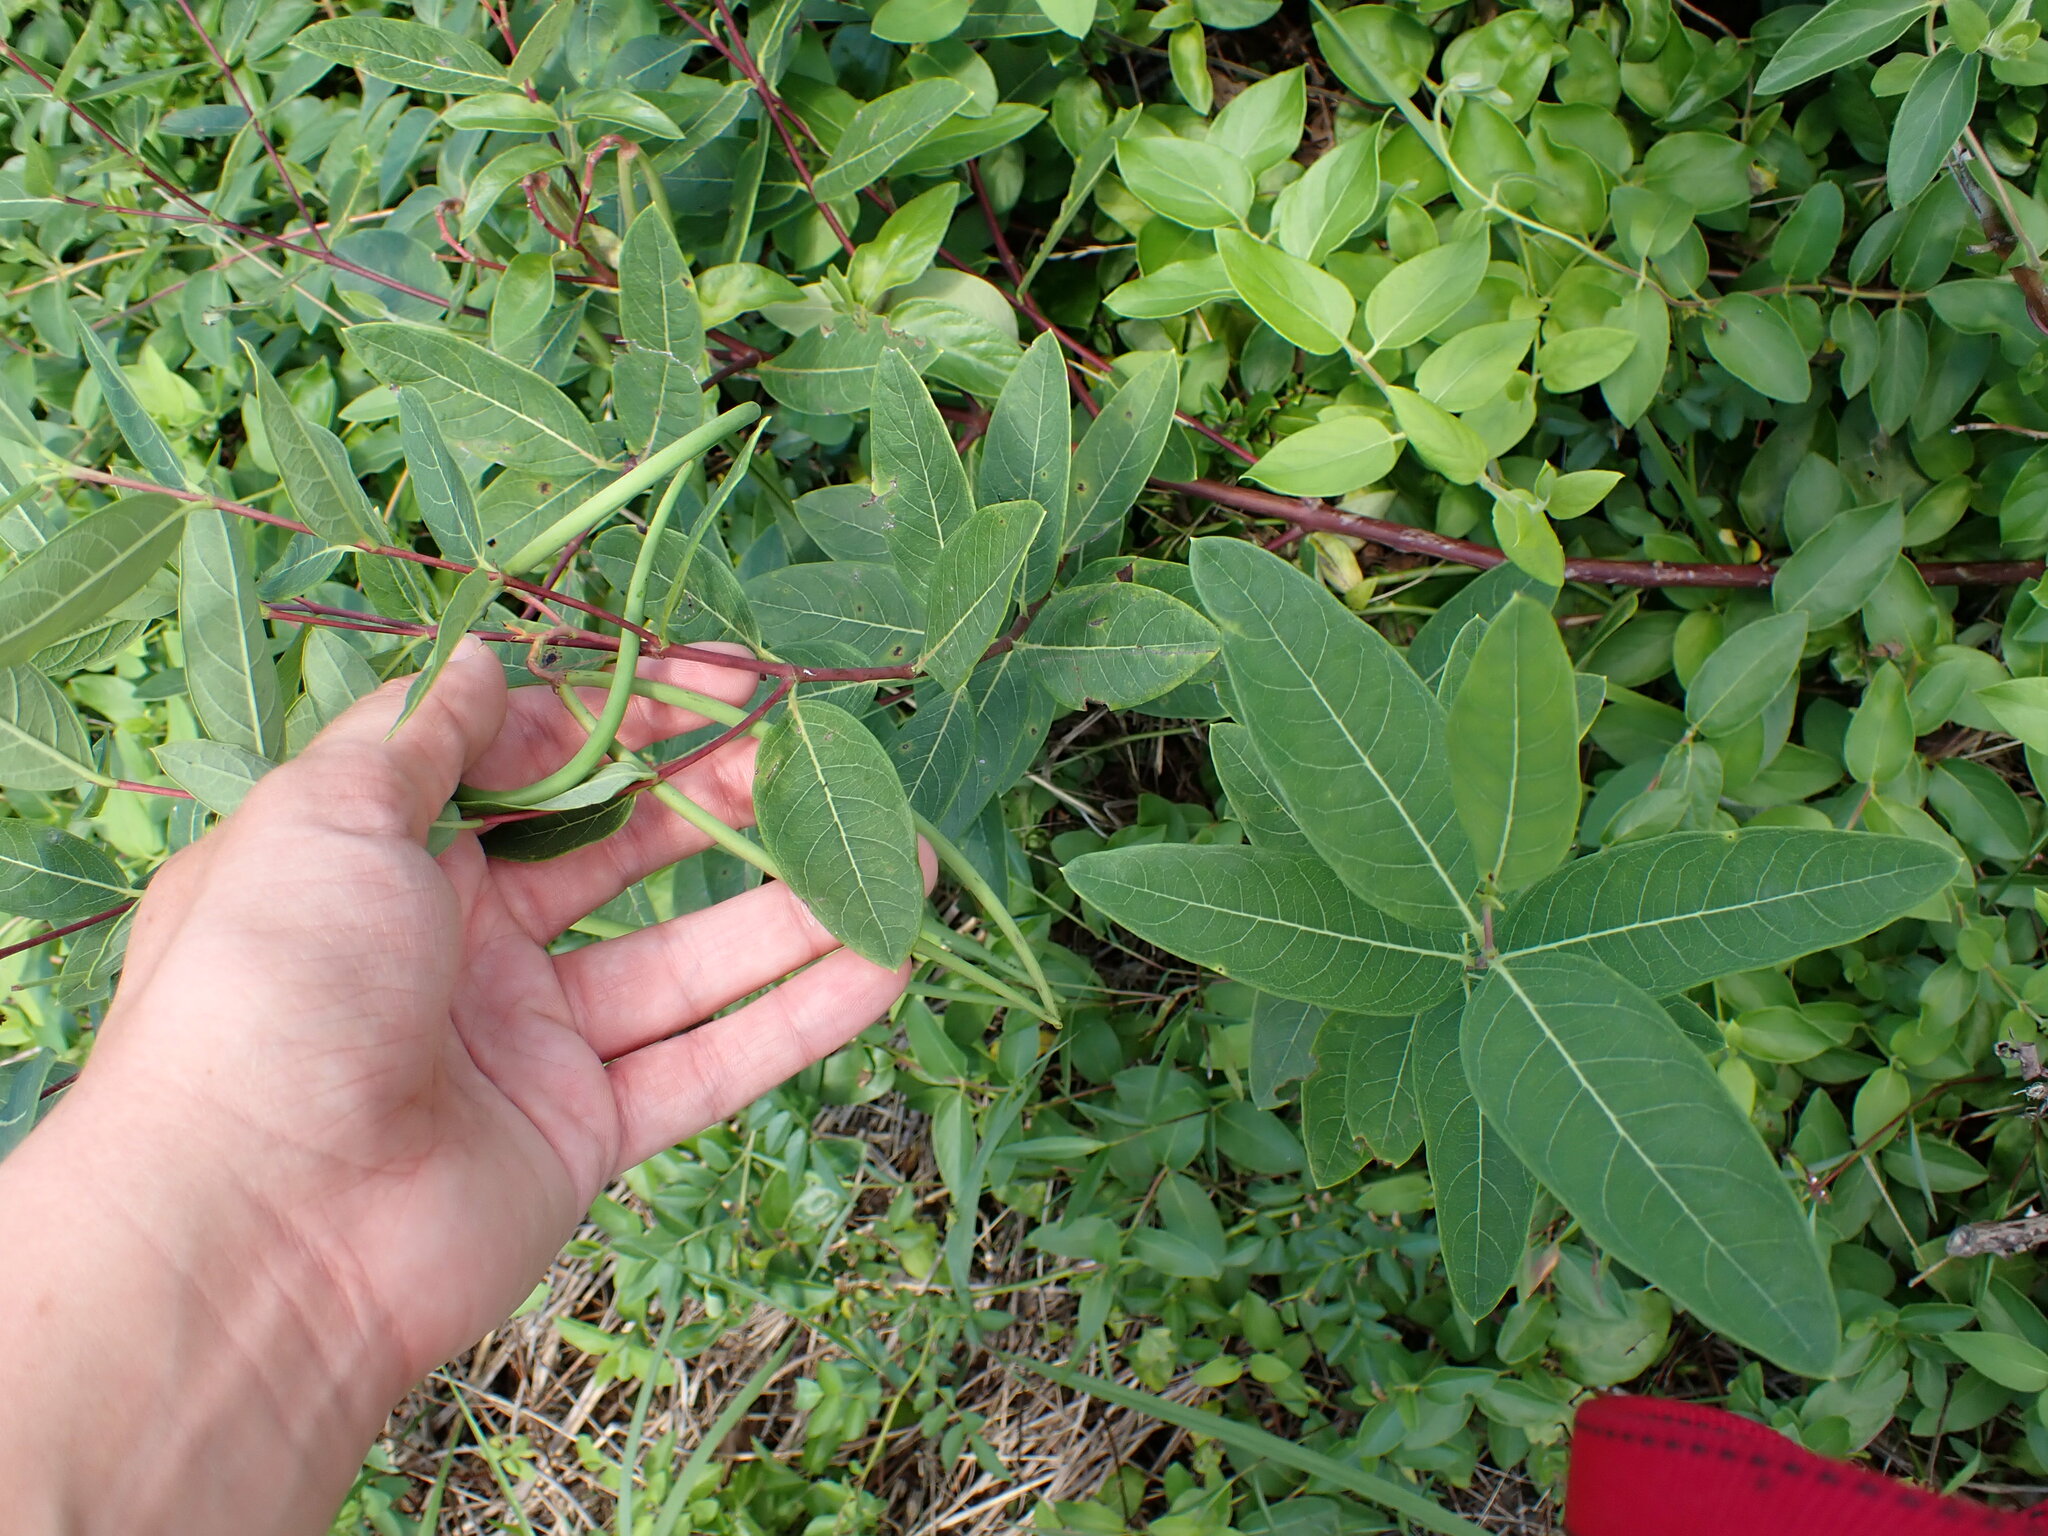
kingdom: Plantae
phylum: Tracheophyta
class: Magnoliopsida
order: Gentianales
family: Apocynaceae
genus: Apocynum
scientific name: Apocynum cannabinum
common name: Hemp dogbane
